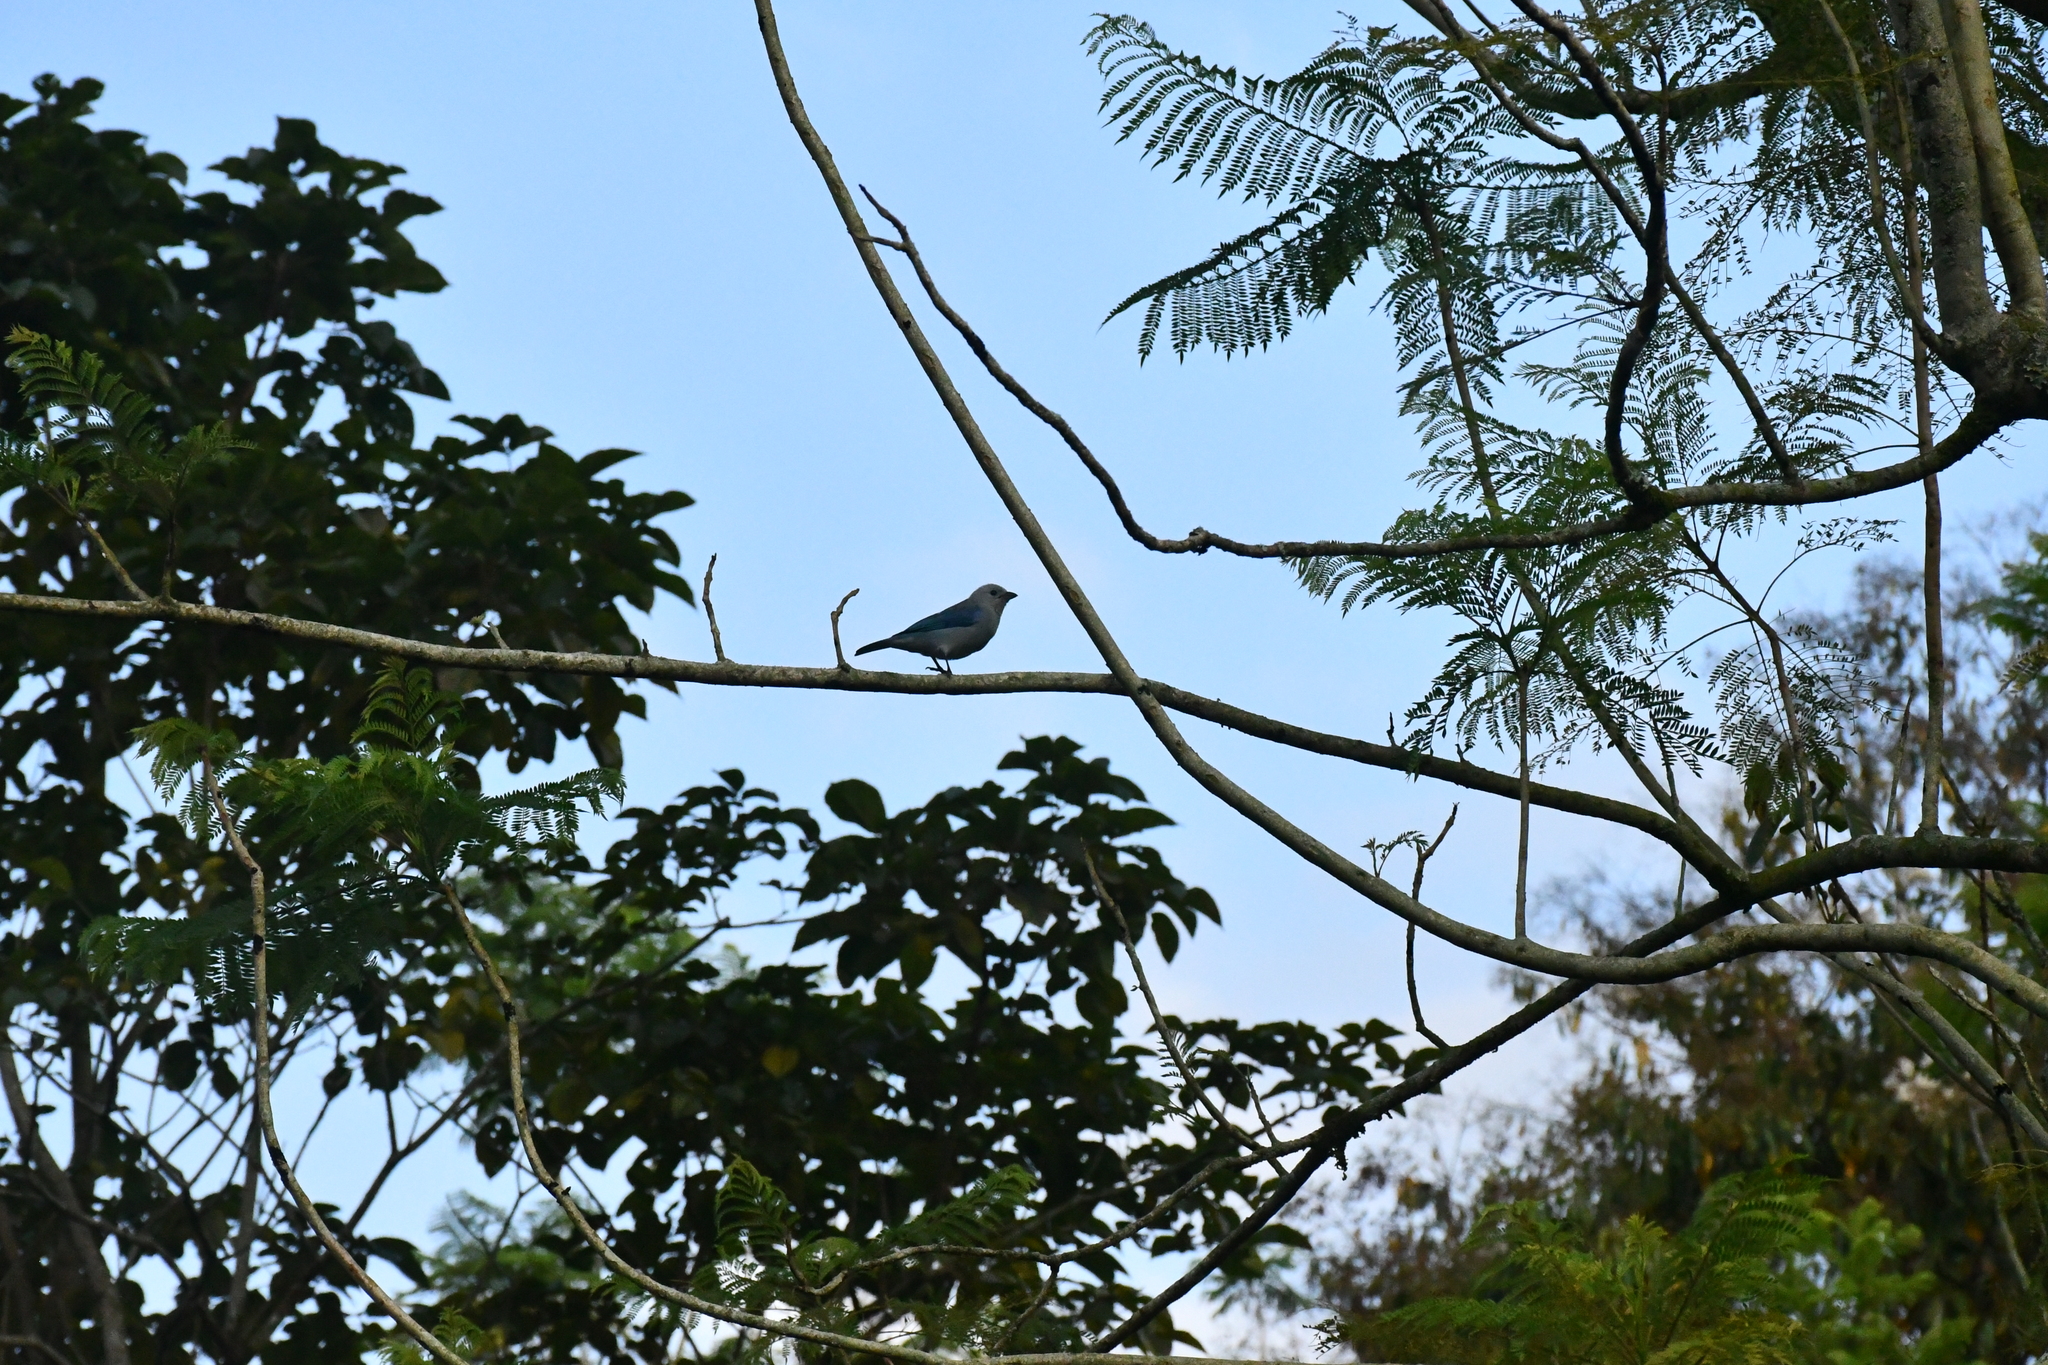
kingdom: Animalia
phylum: Chordata
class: Aves
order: Passeriformes
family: Thraupidae
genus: Thraupis
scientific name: Thraupis episcopus
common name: Blue-grey tanager
